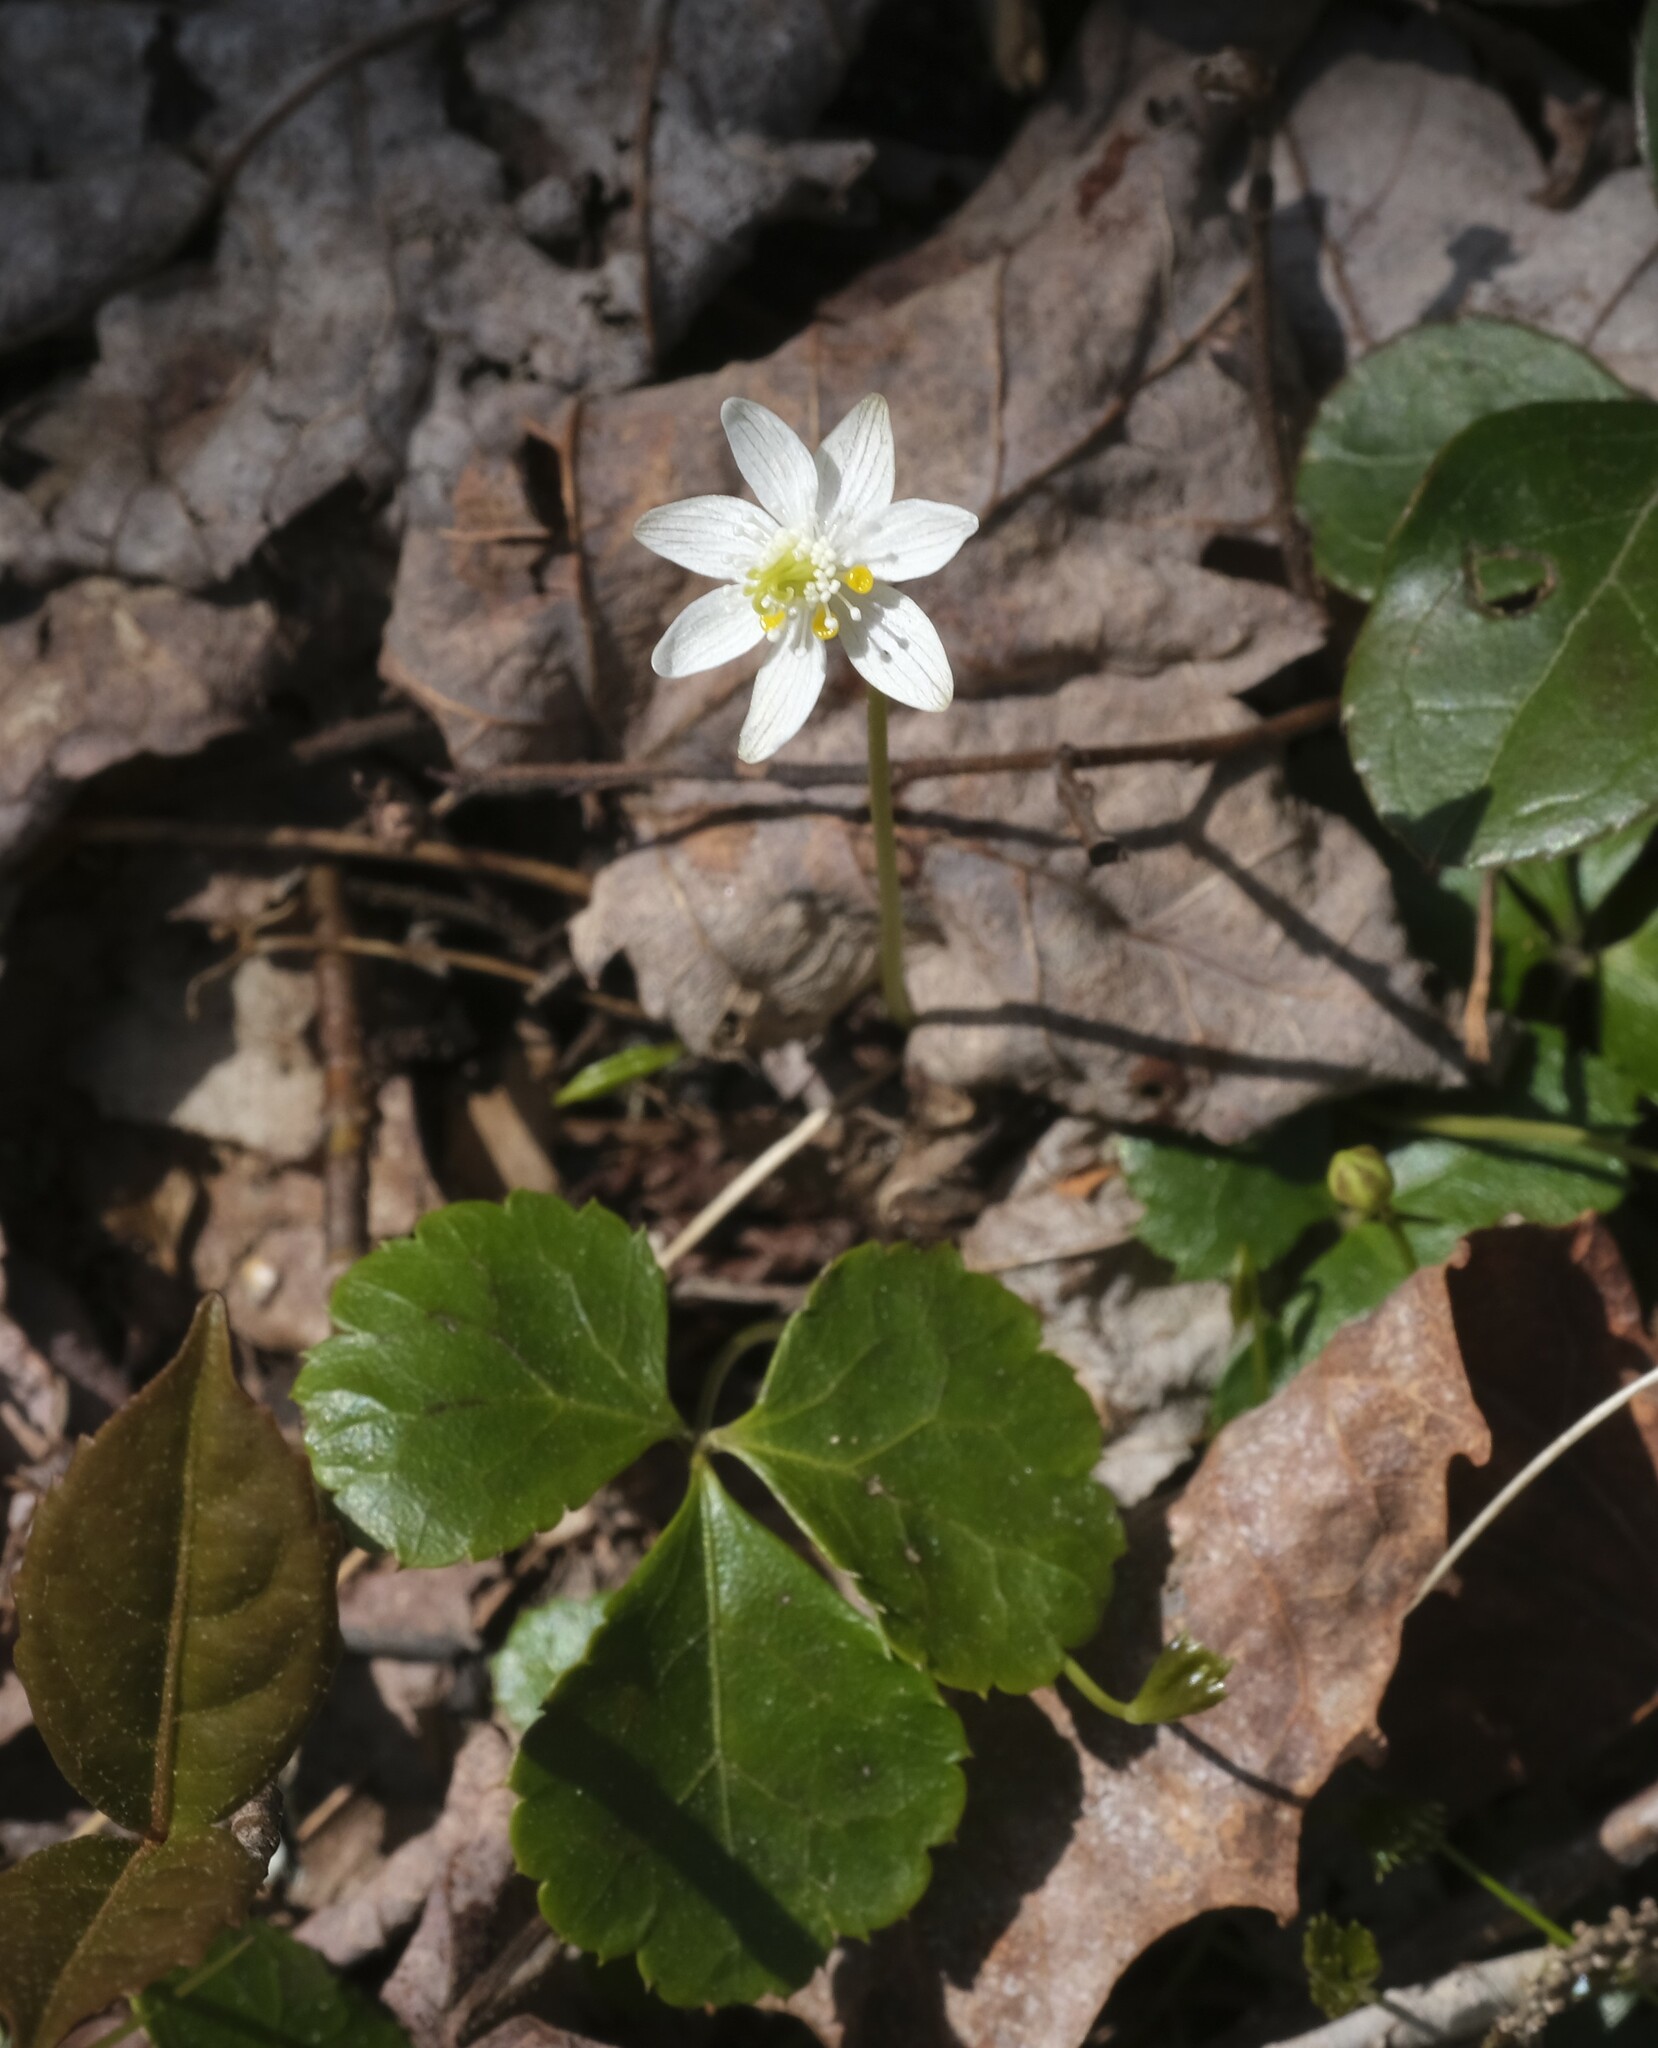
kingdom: Plantae
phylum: Tracheophyta
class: Magnoliopsida
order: Ranunculales
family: Ranunculaceae
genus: Coptis
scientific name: Coptis trifolia
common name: Canker-root
